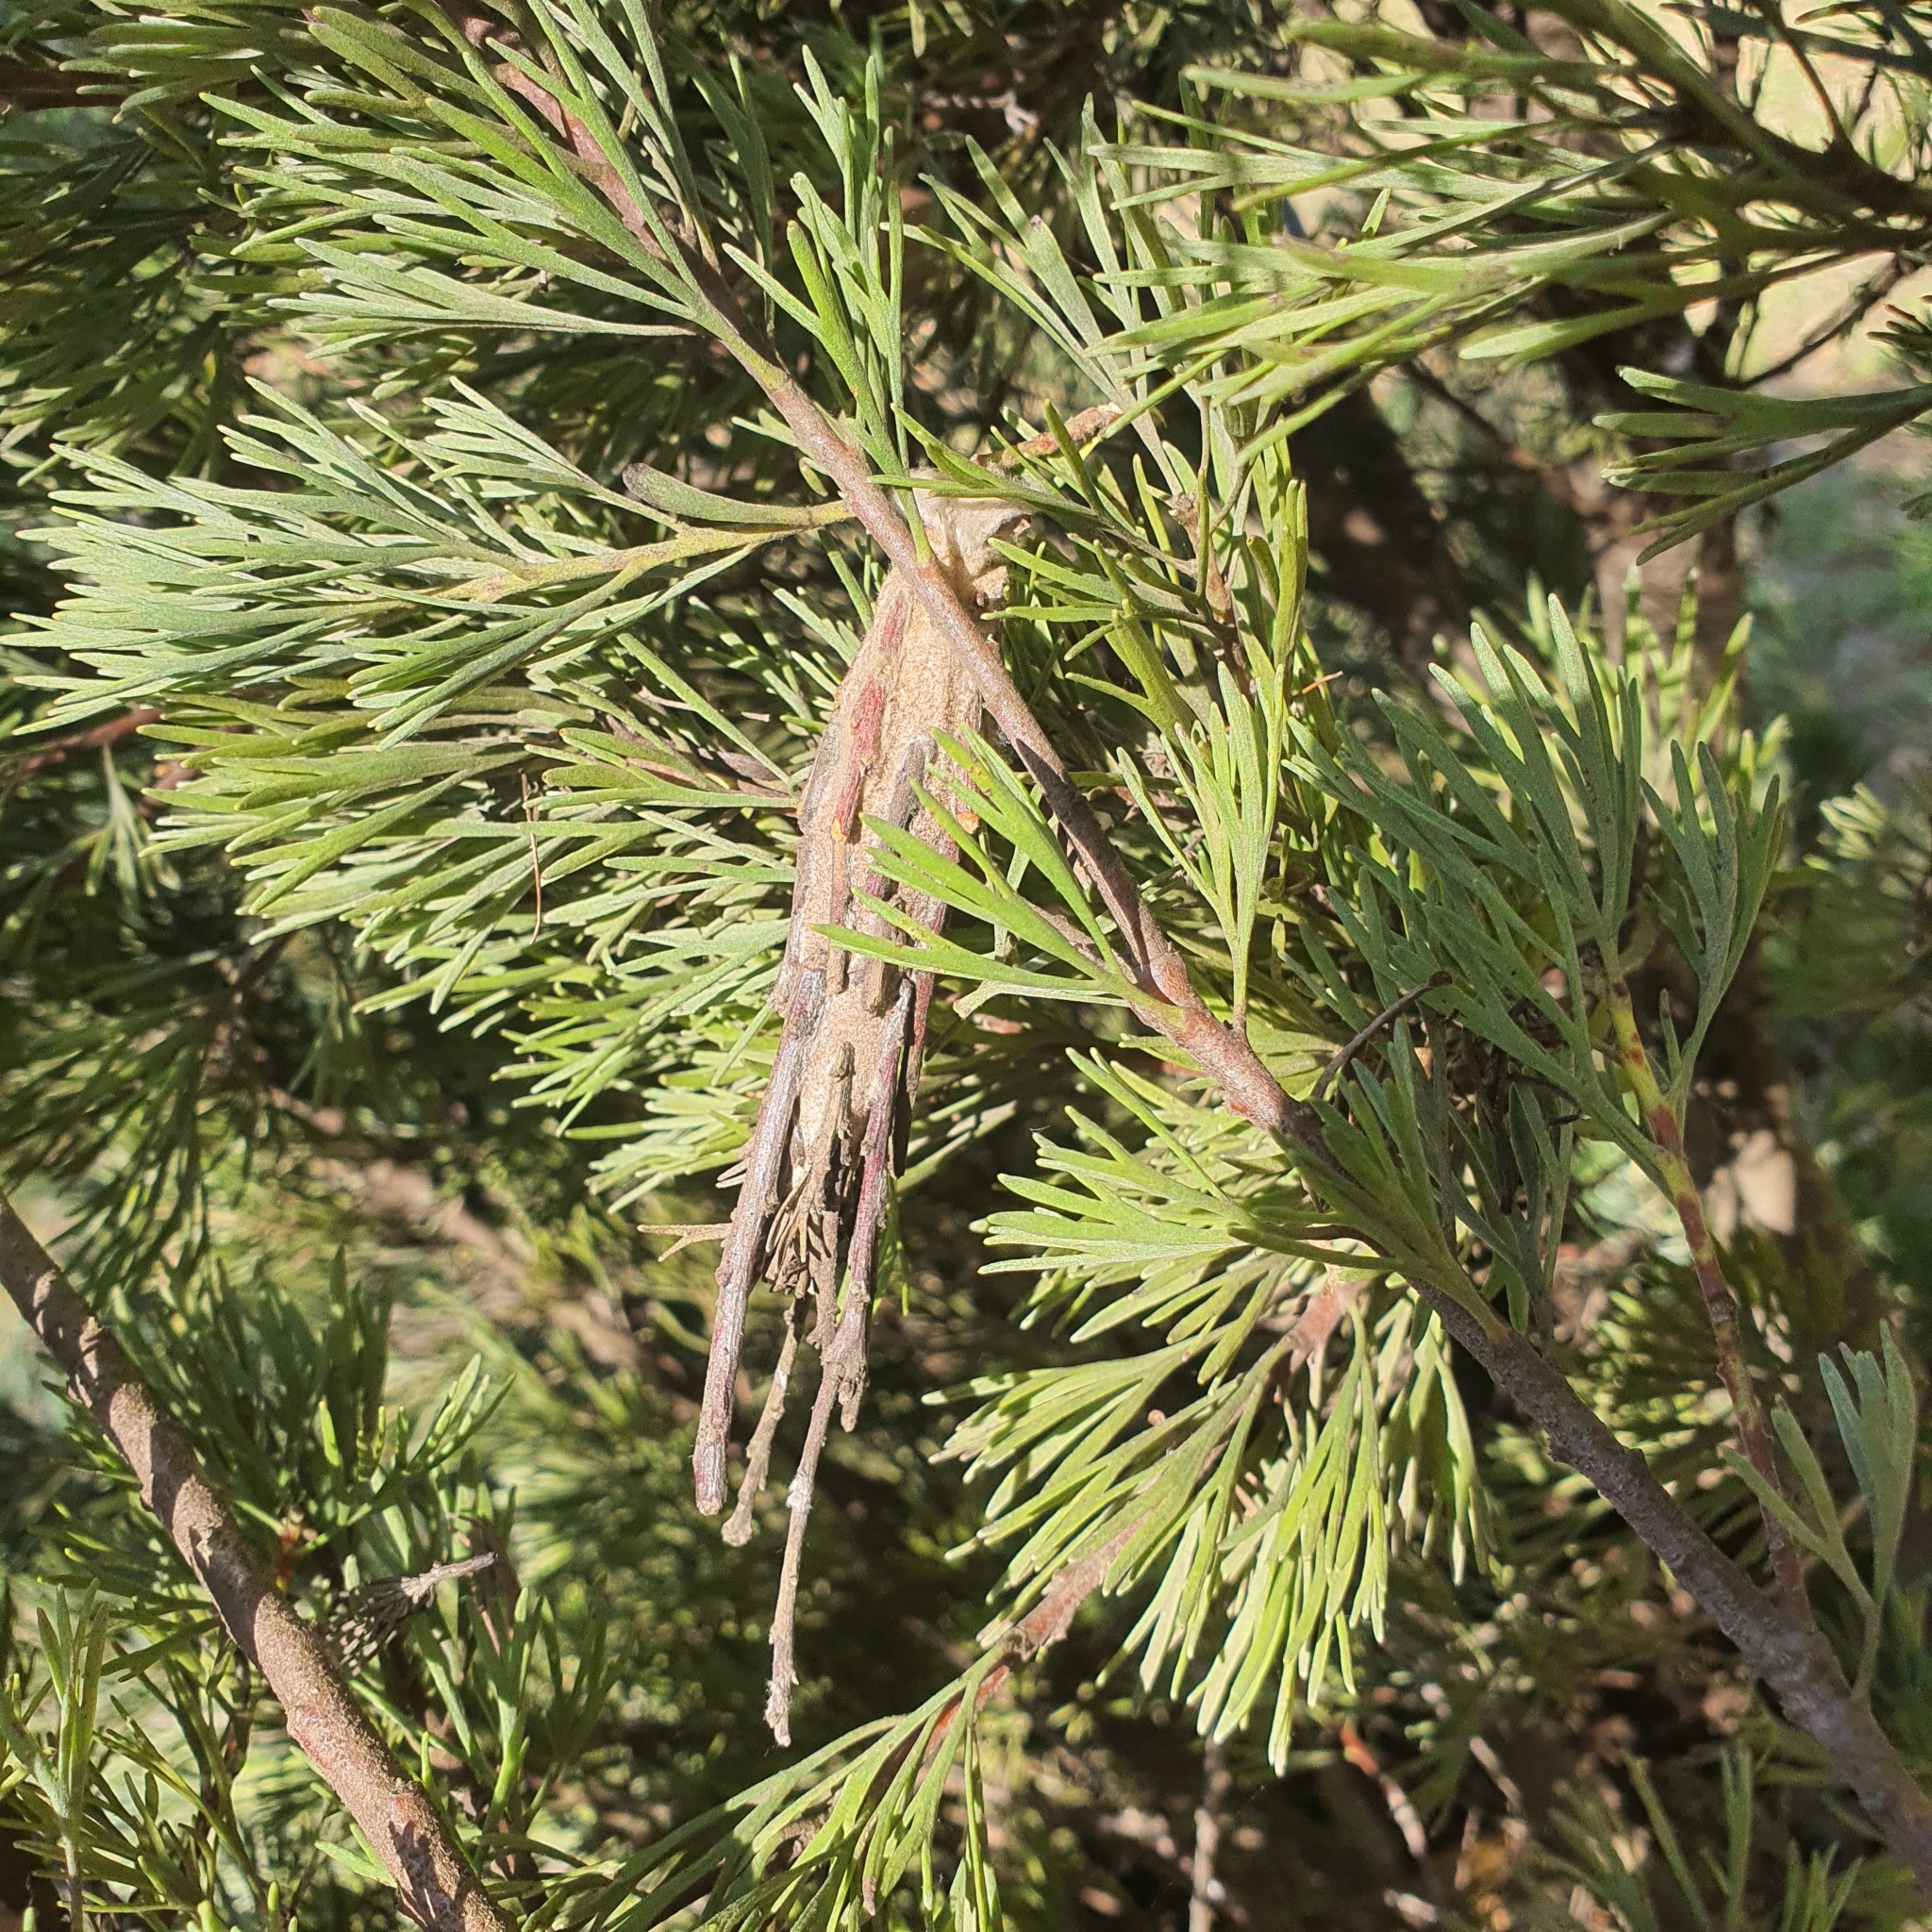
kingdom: Animalia
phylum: Arthropoda
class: Insecta
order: Lepidoptera
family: Psychidae
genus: Metura
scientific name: Metura elongatus
